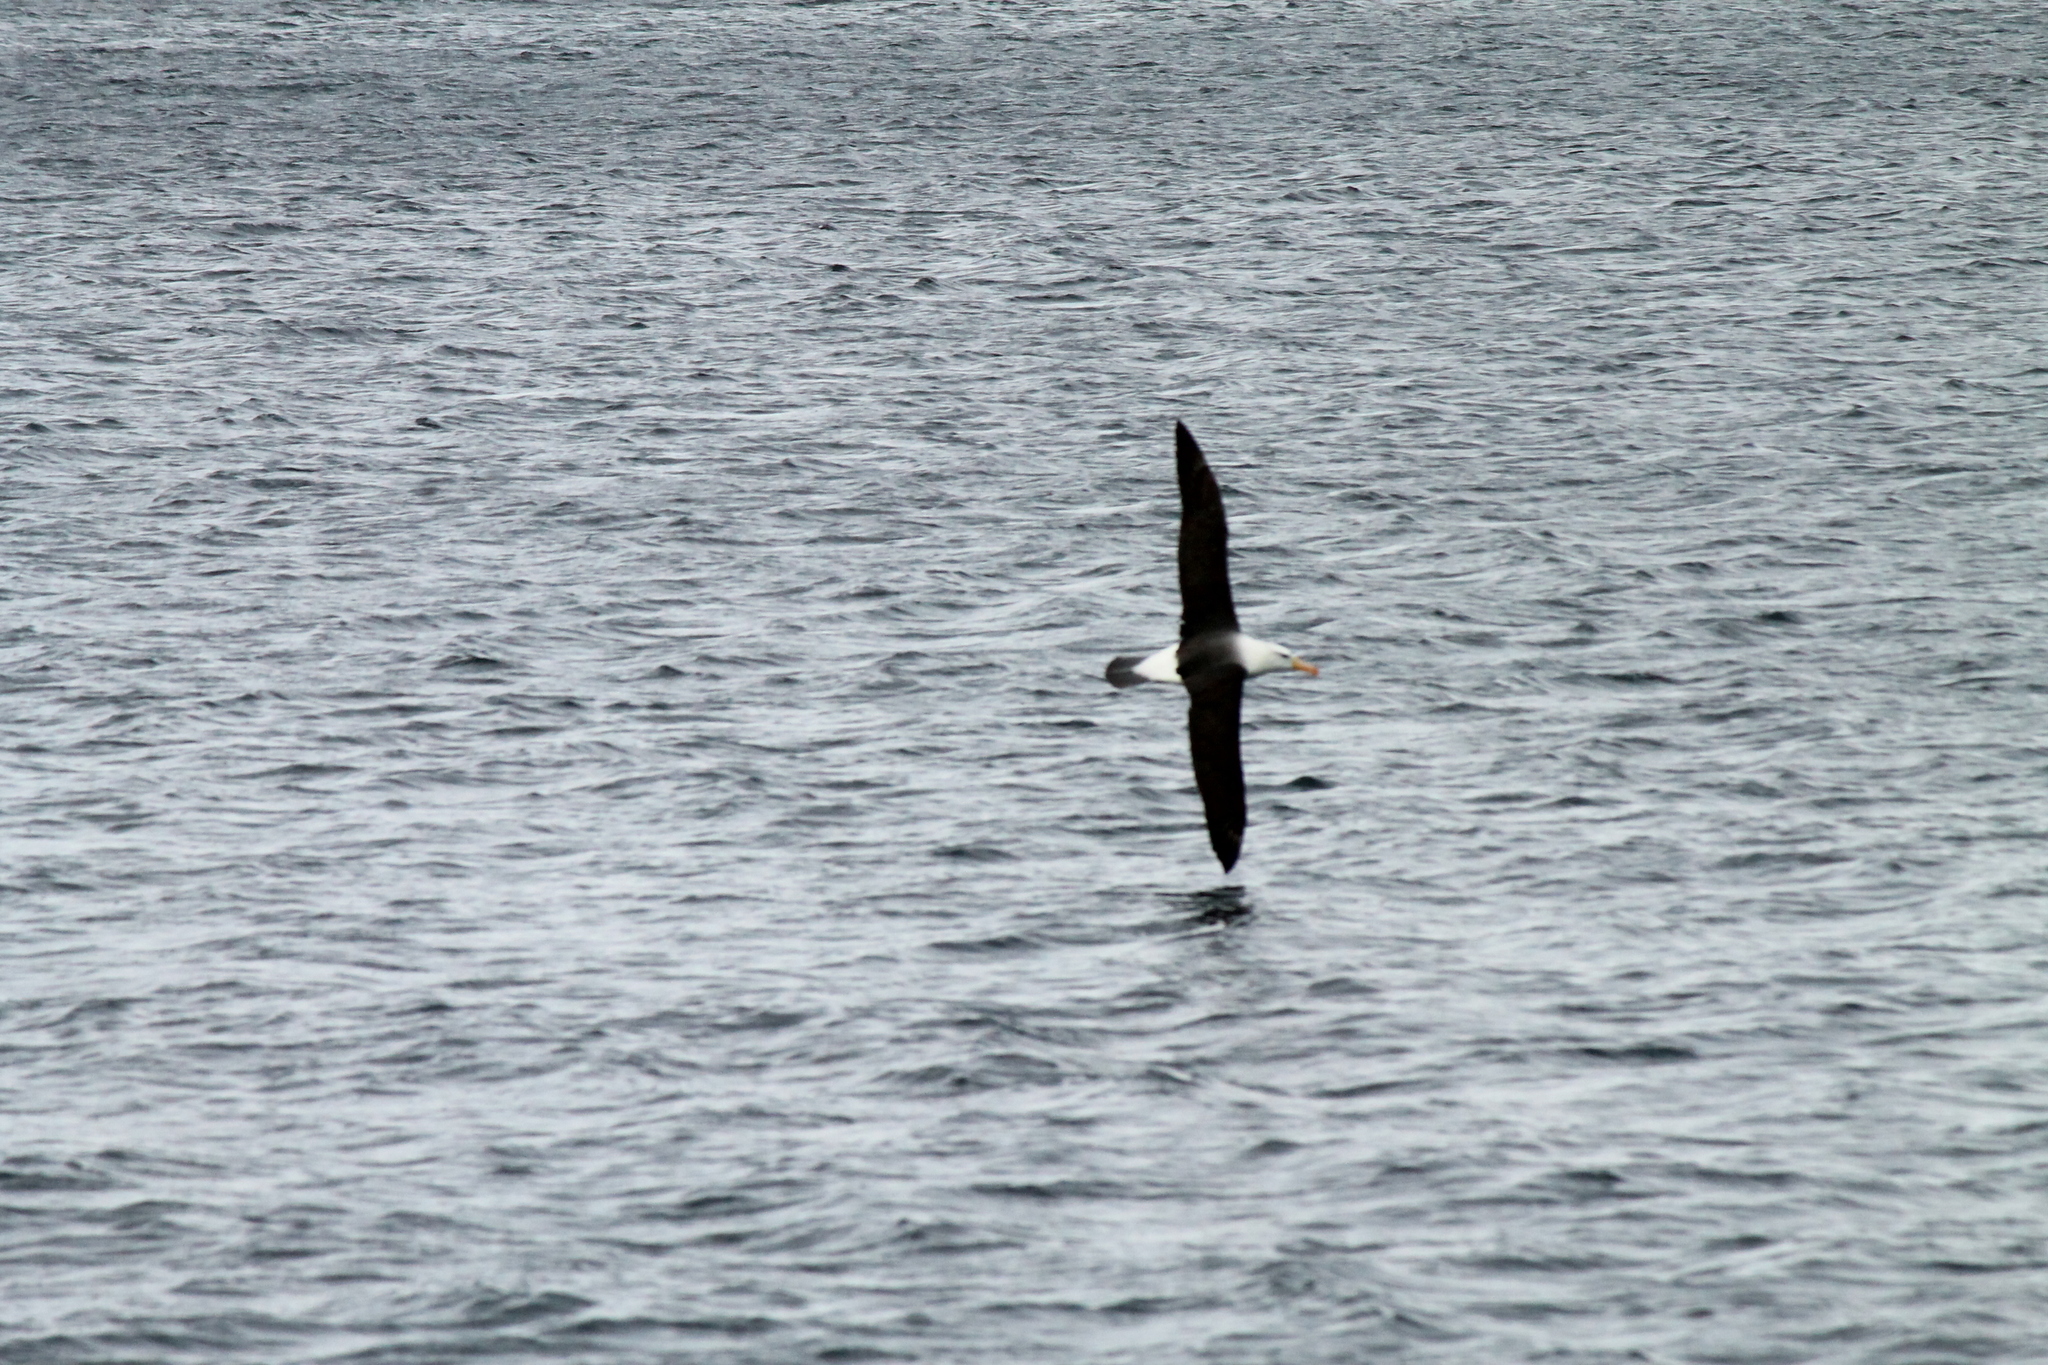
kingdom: Animalia
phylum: Chordata
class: Aves
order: Procellariiformes
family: Diomedeidae
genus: Thalassarche
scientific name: Thalassarche melanophris
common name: Black-browed albatross
